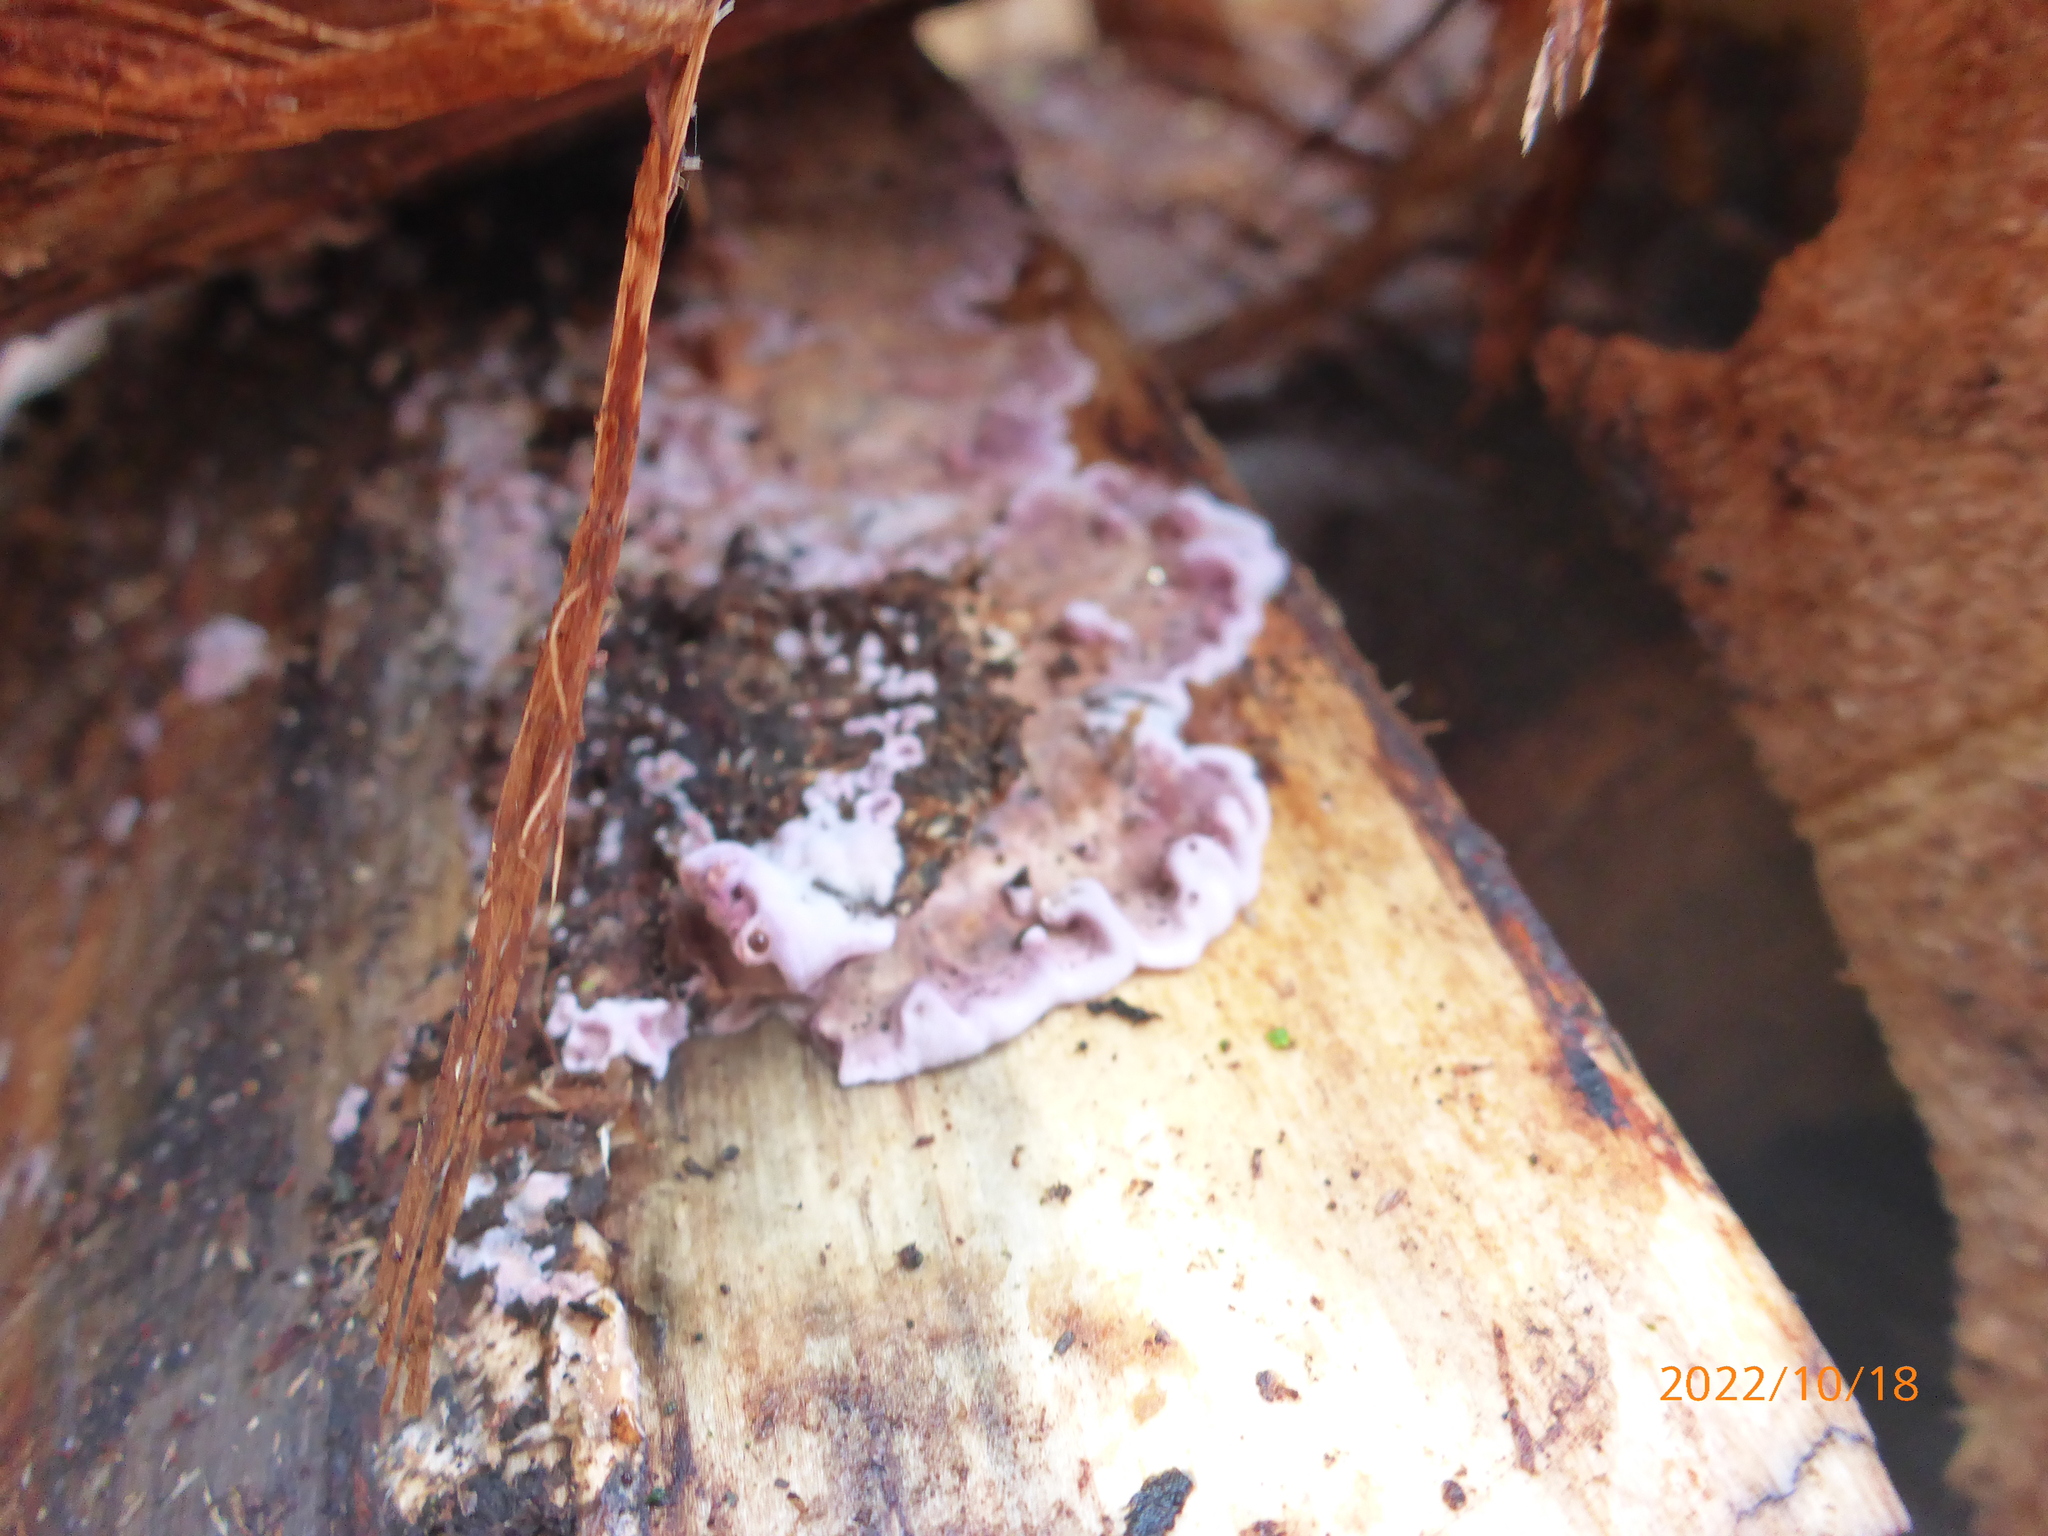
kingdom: Fungi
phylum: Basidiomycota
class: Agaricomycetes
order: Agaricales
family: Cyphellaceae
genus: Chondrostereum
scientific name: Chondrostereum purpureum
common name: Silver leaf disease
